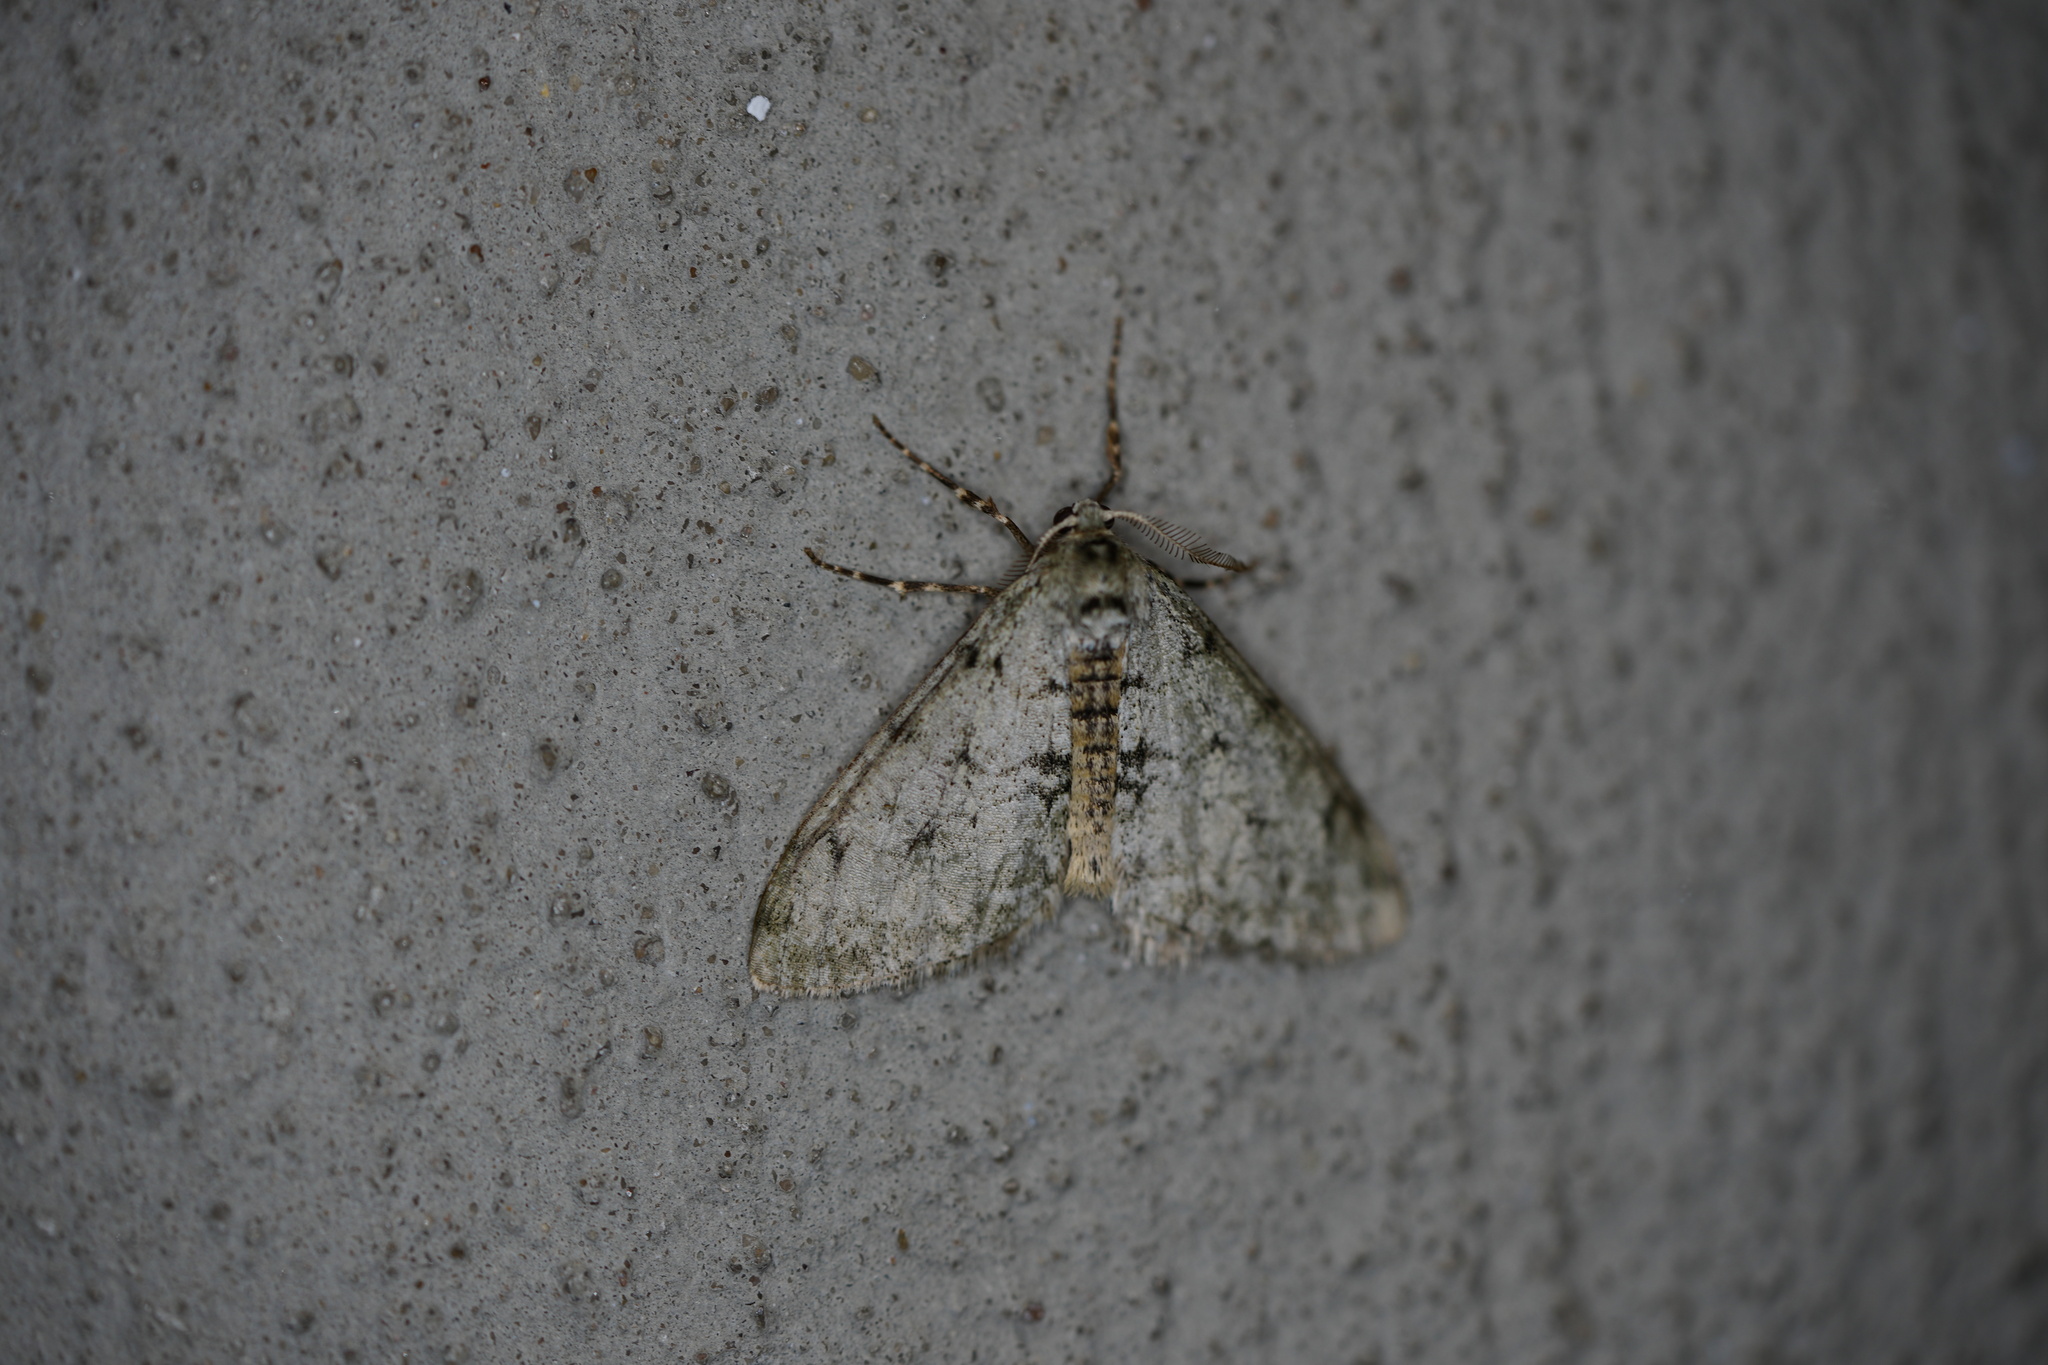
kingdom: Animalia
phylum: Arthropoda
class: Insecta
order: Lepidoptera
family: Geometridae
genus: Phigalia
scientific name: Phigalia strigataria
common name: Small phigalia
